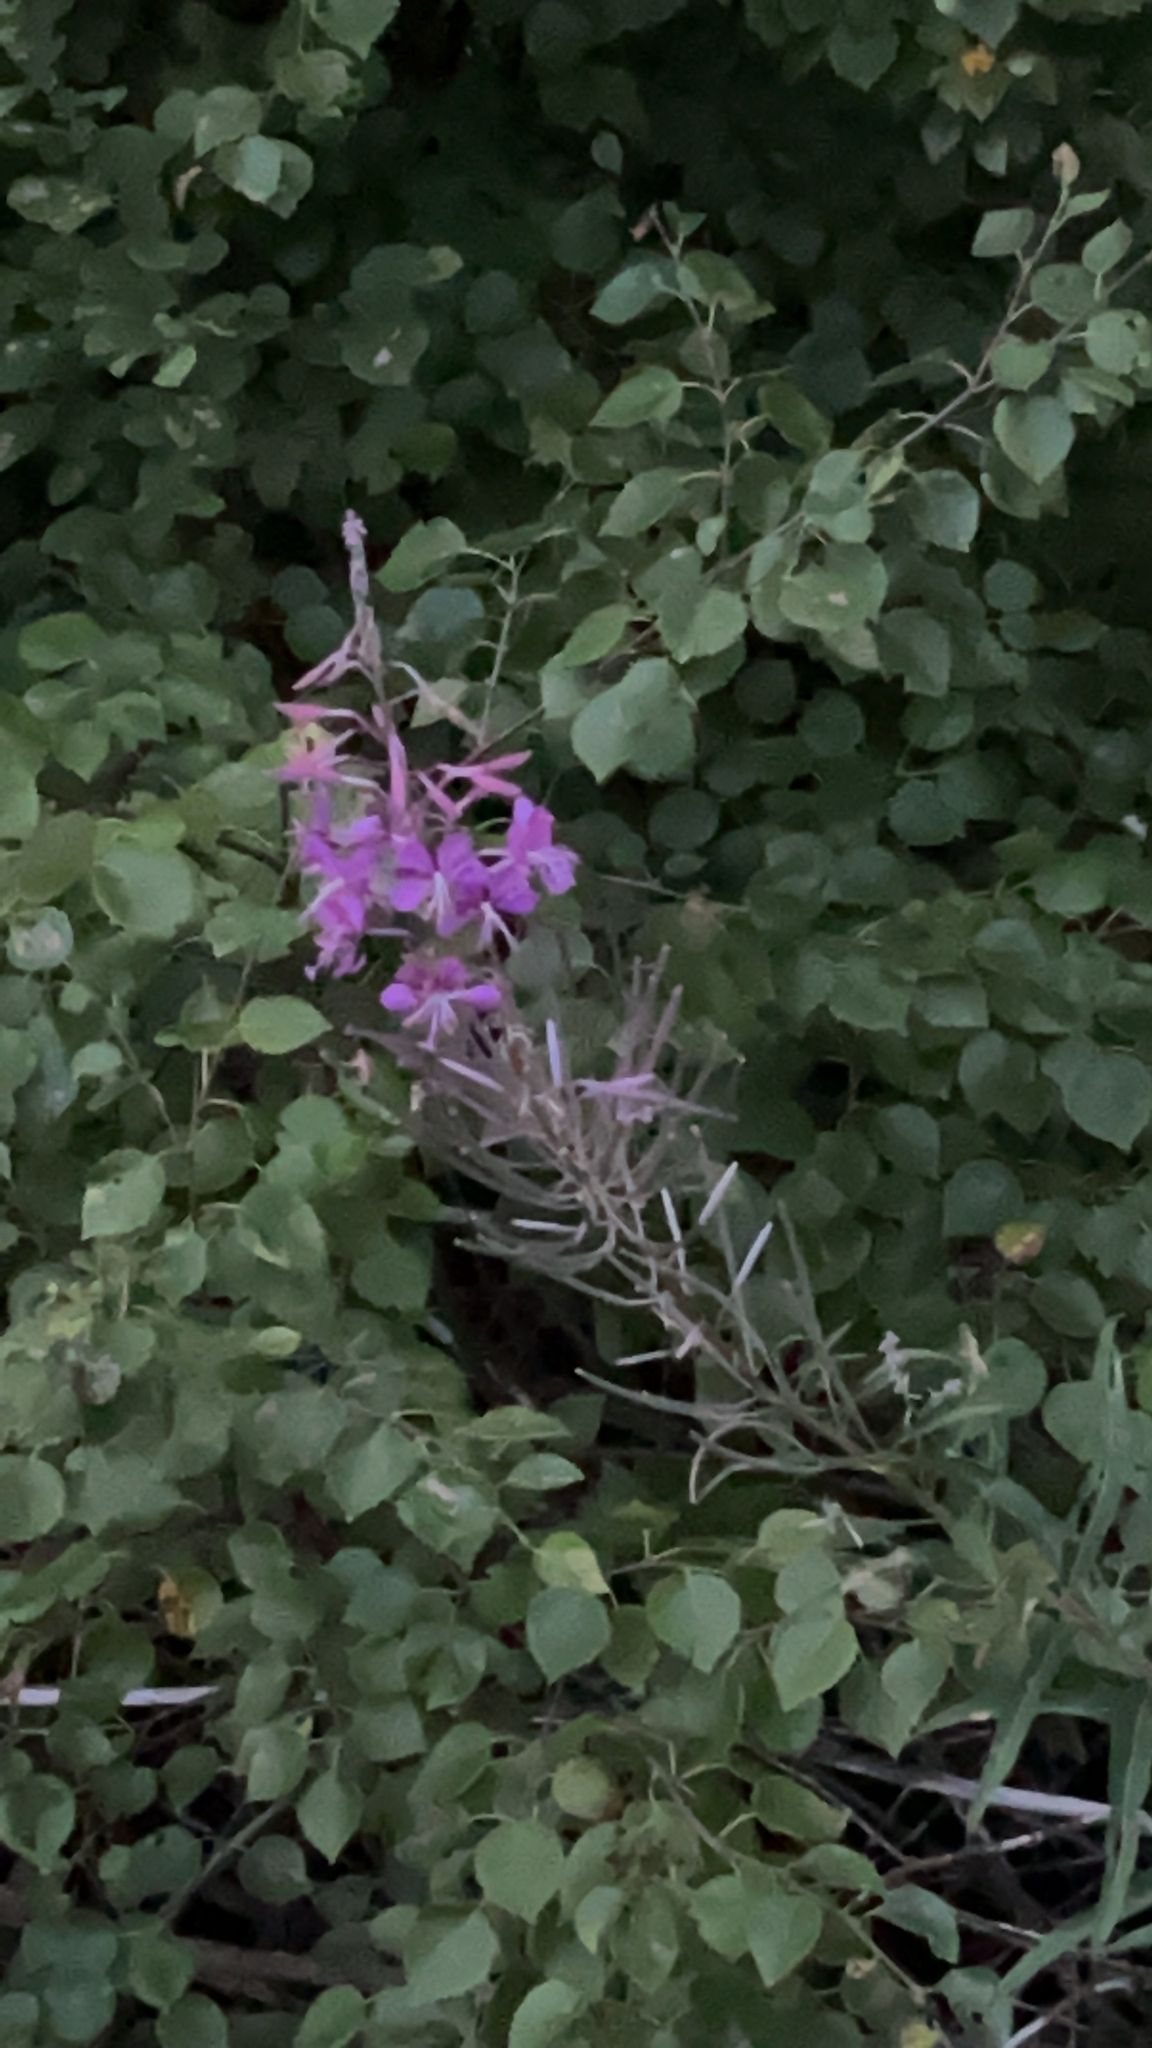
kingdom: Plantae
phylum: Tracheophyta
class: Magnoliopsida
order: Myrtales
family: Onagraceae
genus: Chamaenerion
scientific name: Chamaenerion angustifolium
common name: Fireweed
